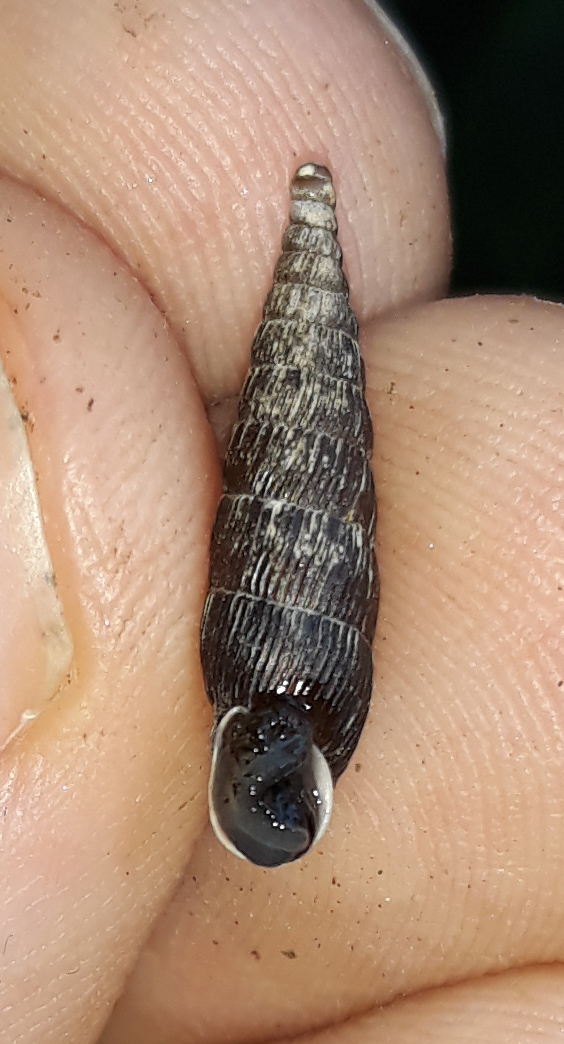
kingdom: Animalia
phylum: Mollusca
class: Gastropoda
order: Stylommatophora
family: Clausiliidae
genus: Macrogastra
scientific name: Macrogastra ventricosa
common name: Ventricose door snail
